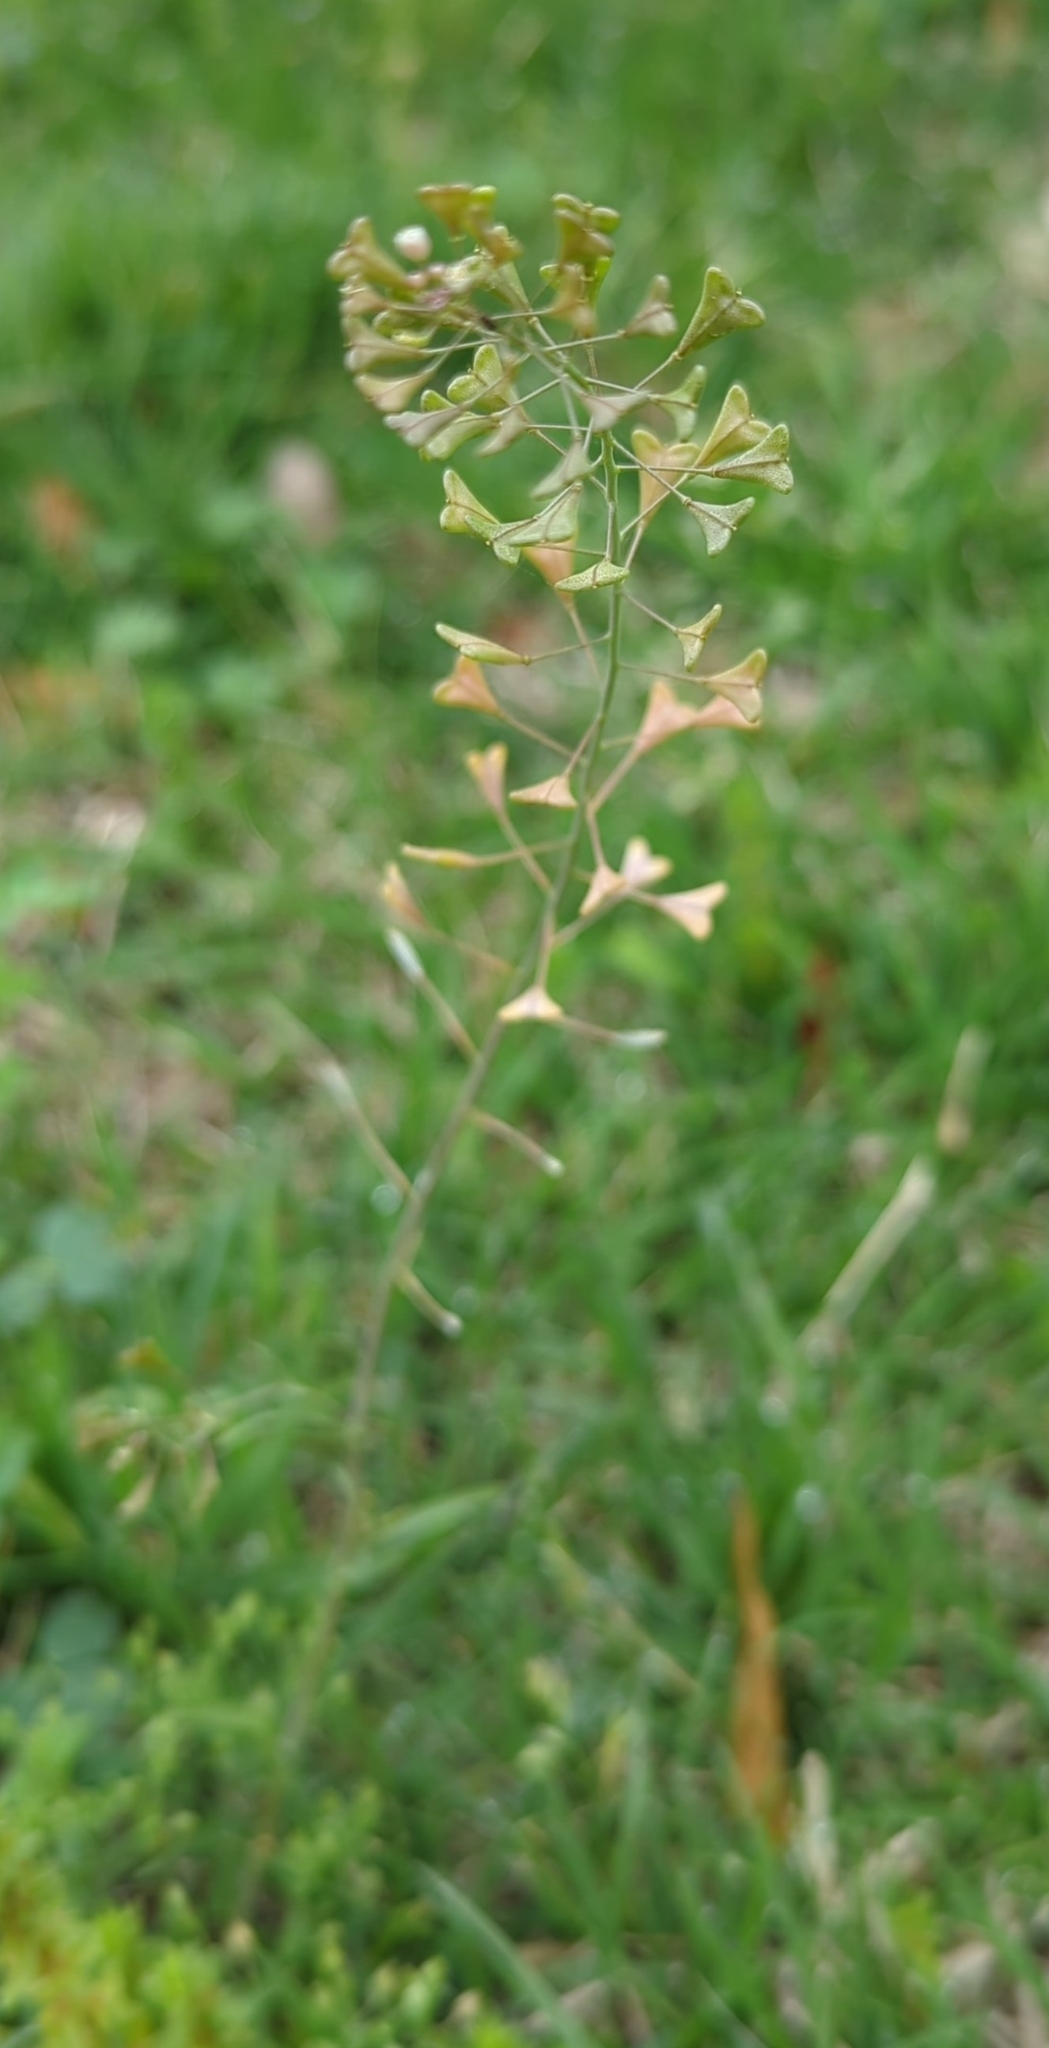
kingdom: Plantae
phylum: Tracheophyta
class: Magnoliopsida
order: Brassicales
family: Brassicaceae
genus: Capsella
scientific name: Capsella bursa-pastoris
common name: Shepherd's purse
